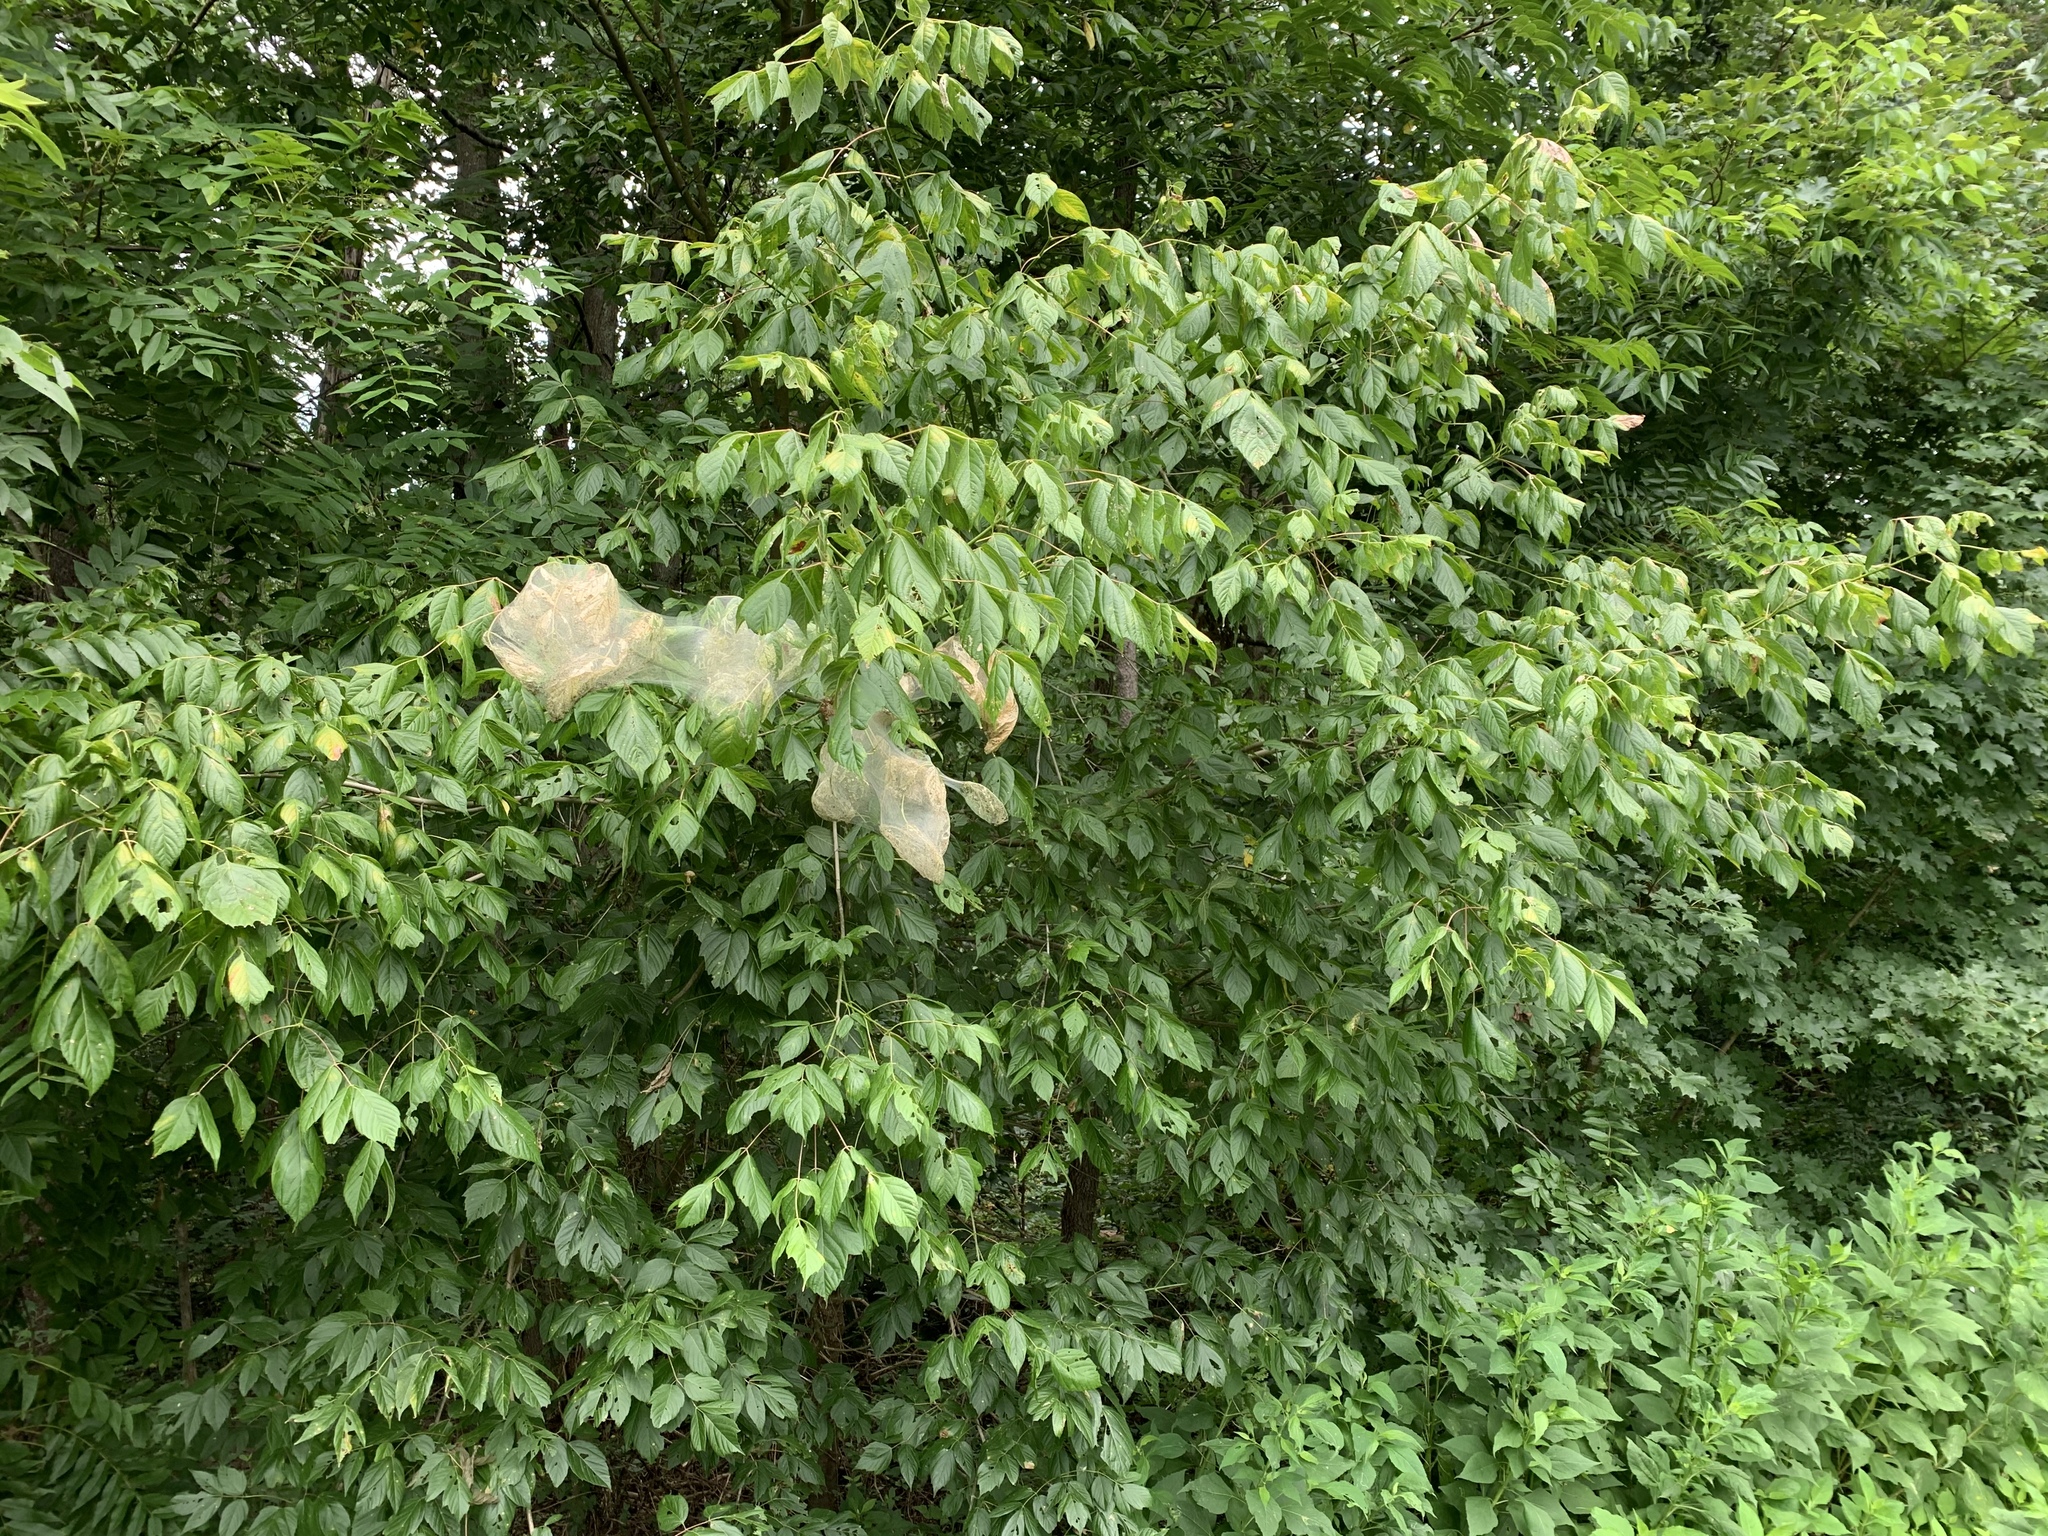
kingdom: Plantae
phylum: Tracheophyta
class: Magnoliopsida
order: Sapindales
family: Sapindaceae
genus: Acer
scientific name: Acer negundo
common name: Ashleaf maple
